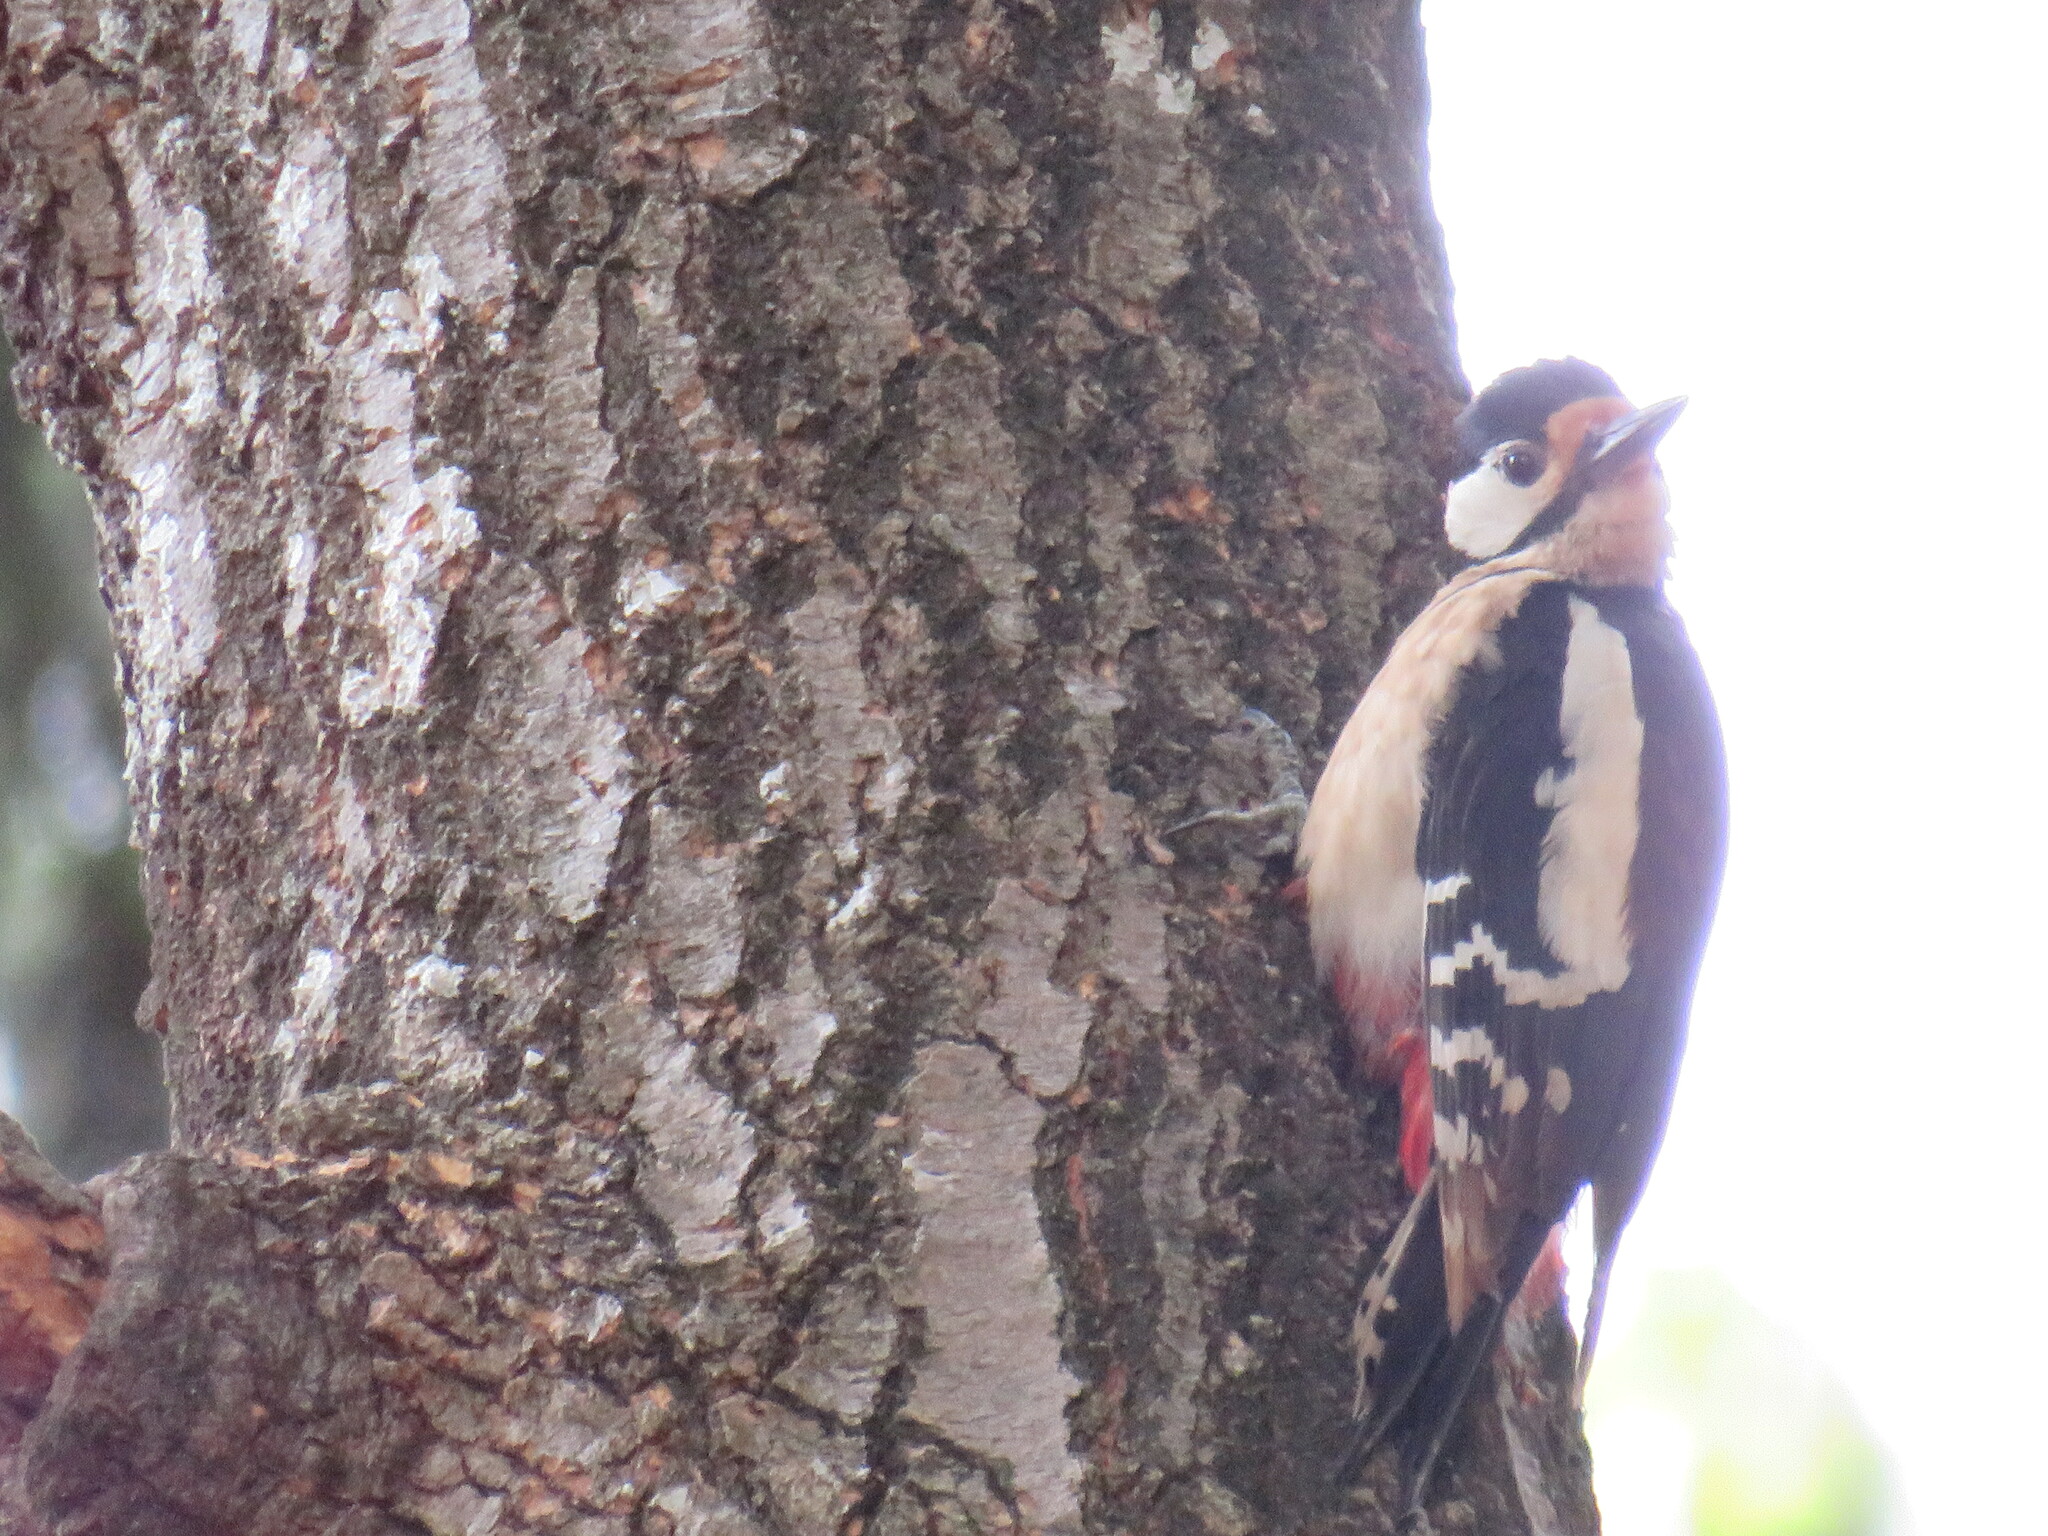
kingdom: Animalia
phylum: Chordata
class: Aves
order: Piciformes
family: Picidae
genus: Dendrocopos
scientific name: Dendrocopos major
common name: Great spotted woodpecker
